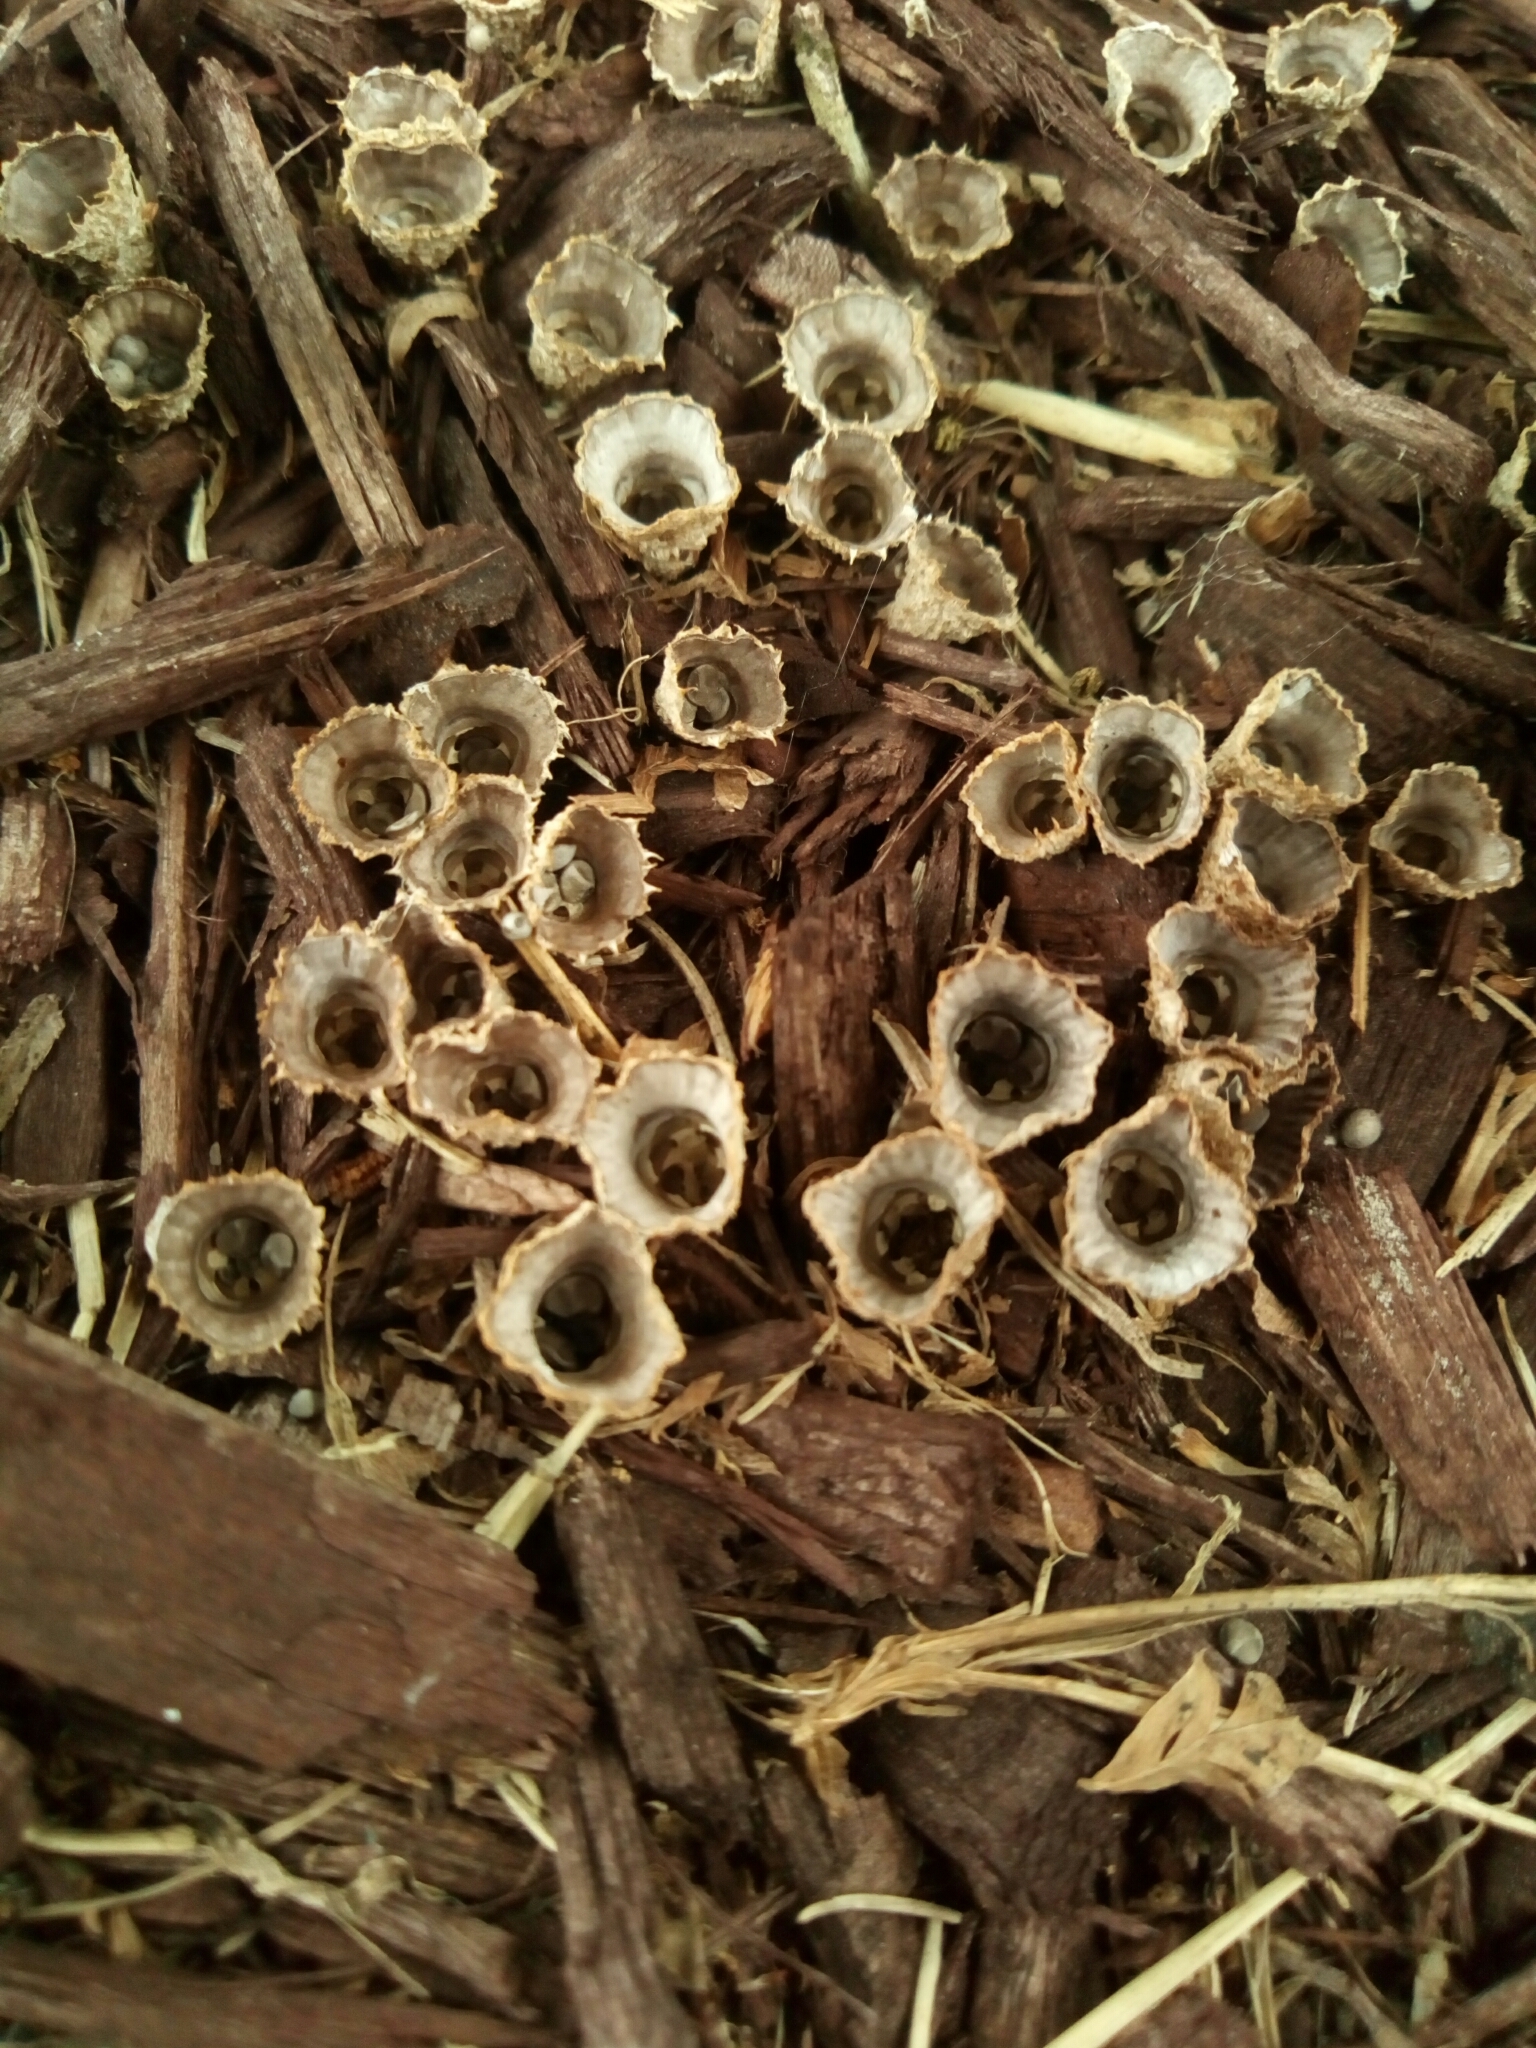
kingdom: Fungi
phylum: Basidiomycota
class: Agaricomycetes
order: Agaricales
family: Agaricaceae
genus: Cyathus
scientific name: Cyathus striatus
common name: Fluted bird's nest
